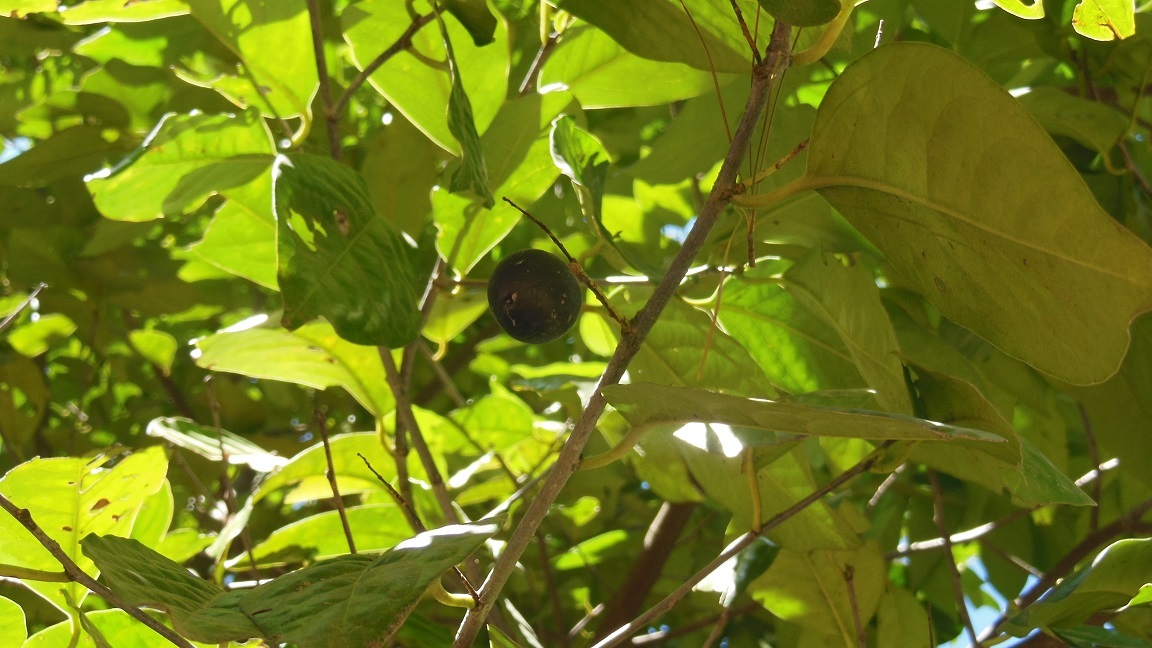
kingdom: Plantae
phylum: Tracheophyta
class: Magnoliopsida
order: Rosales
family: Rosaceae
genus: Prunus
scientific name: Prunus tetradenia
